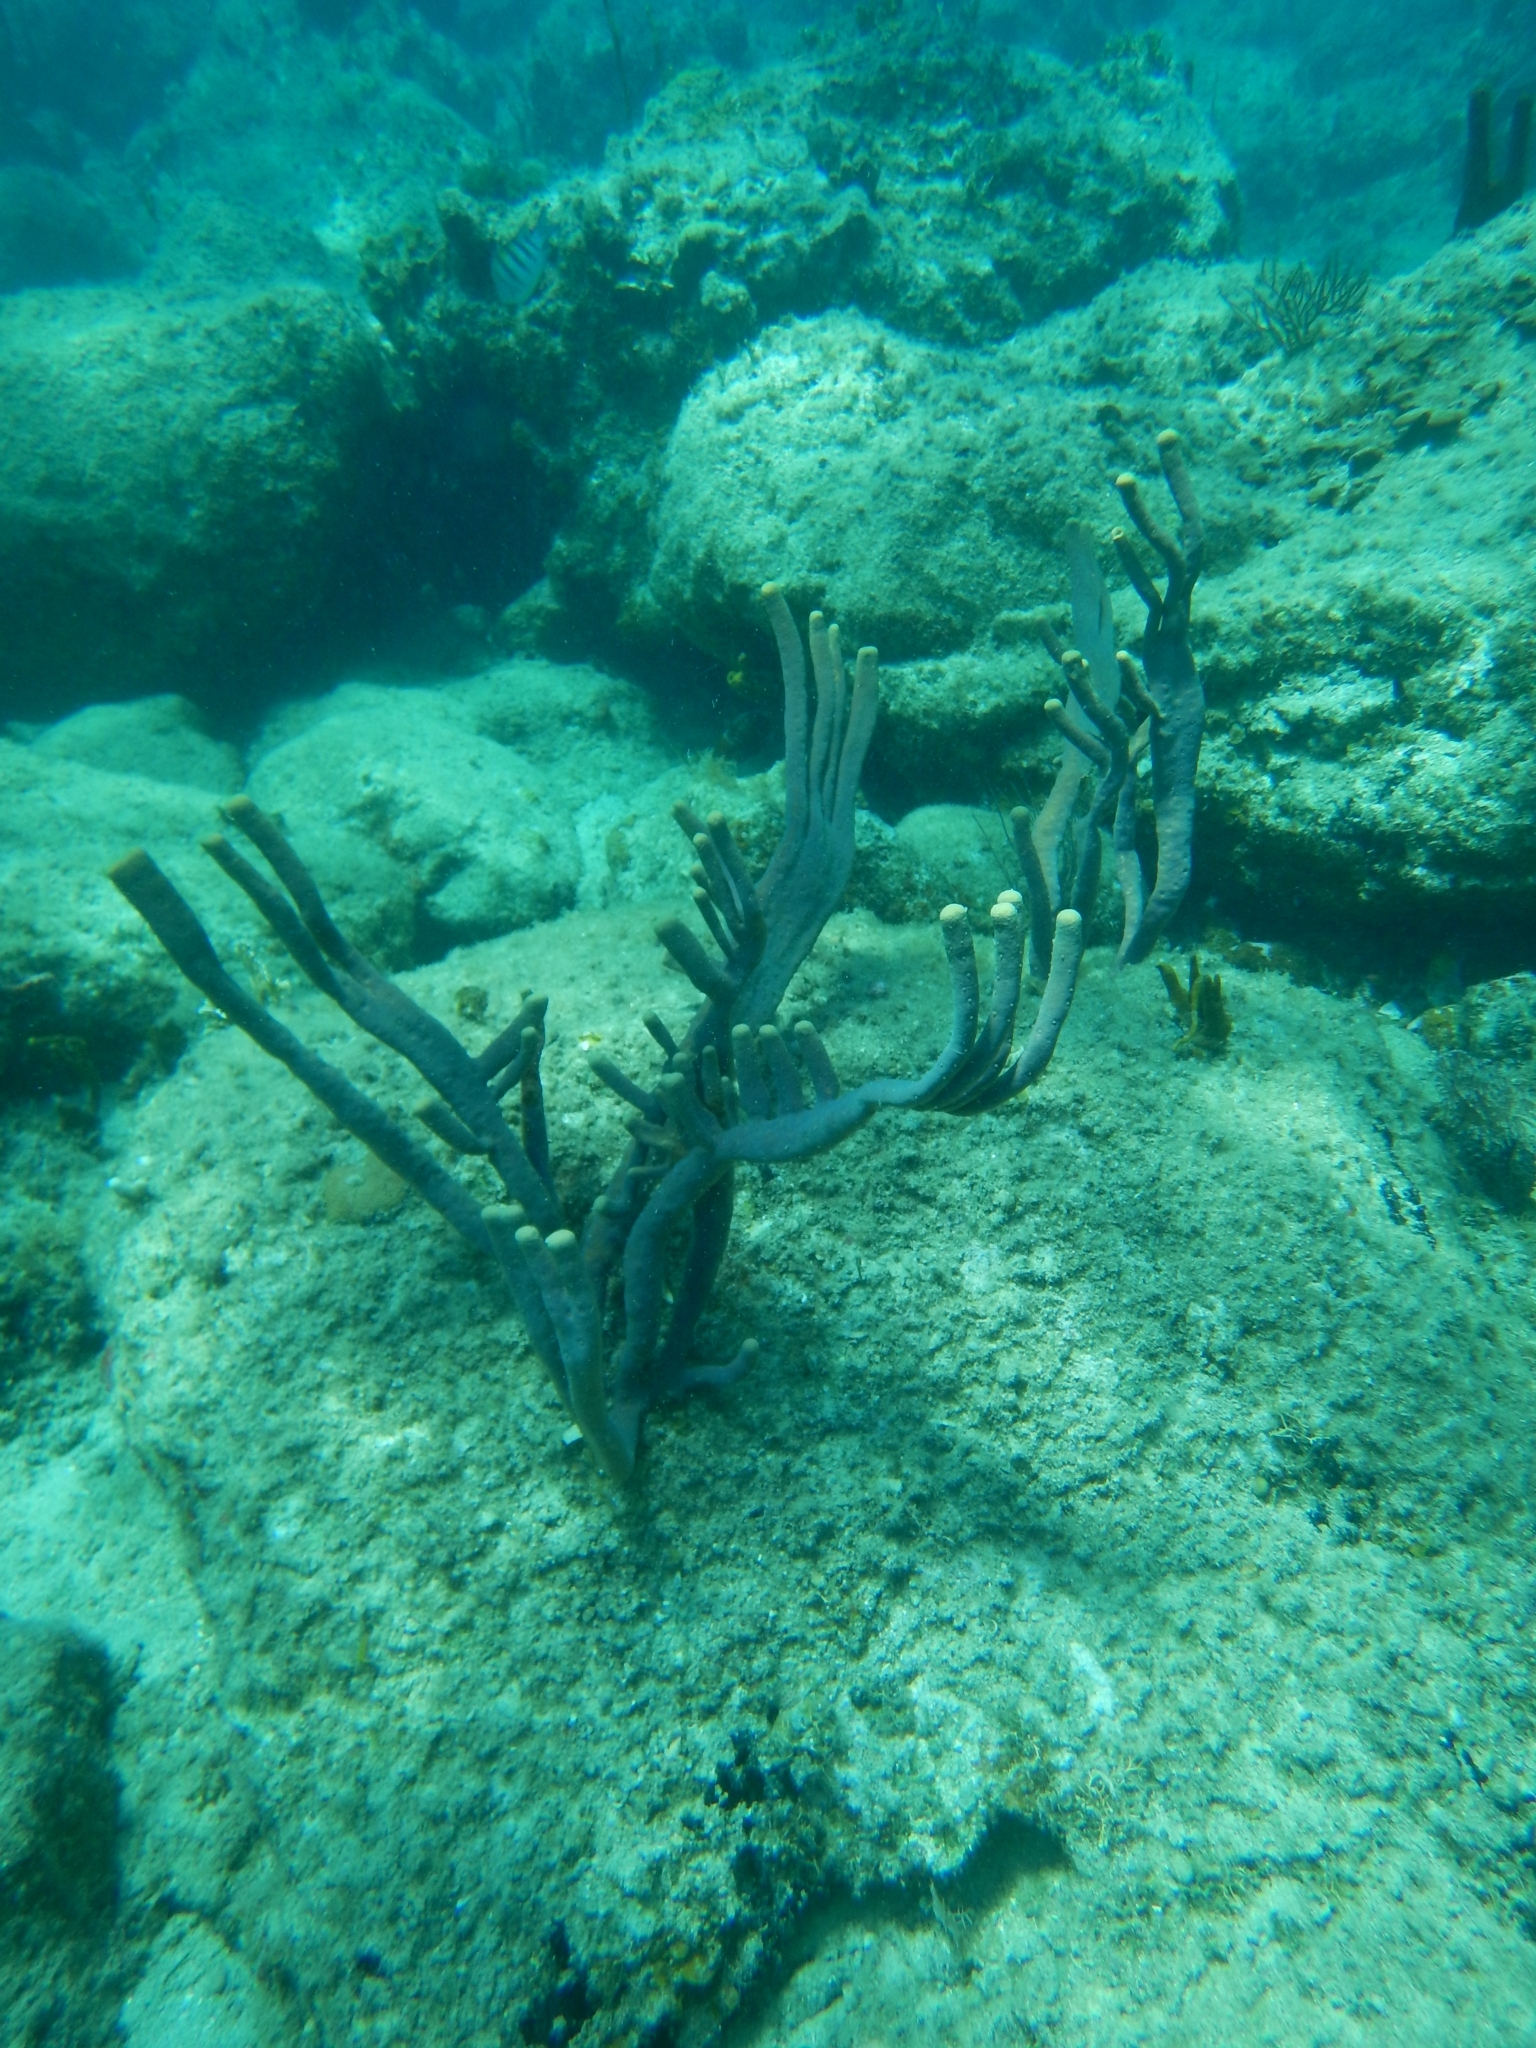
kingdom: Animalia
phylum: Porifera
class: Demospongiae
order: Verongiida
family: Aplysinidae
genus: Aplysina
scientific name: Aplysina cauliformis
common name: Branching candle sponge
